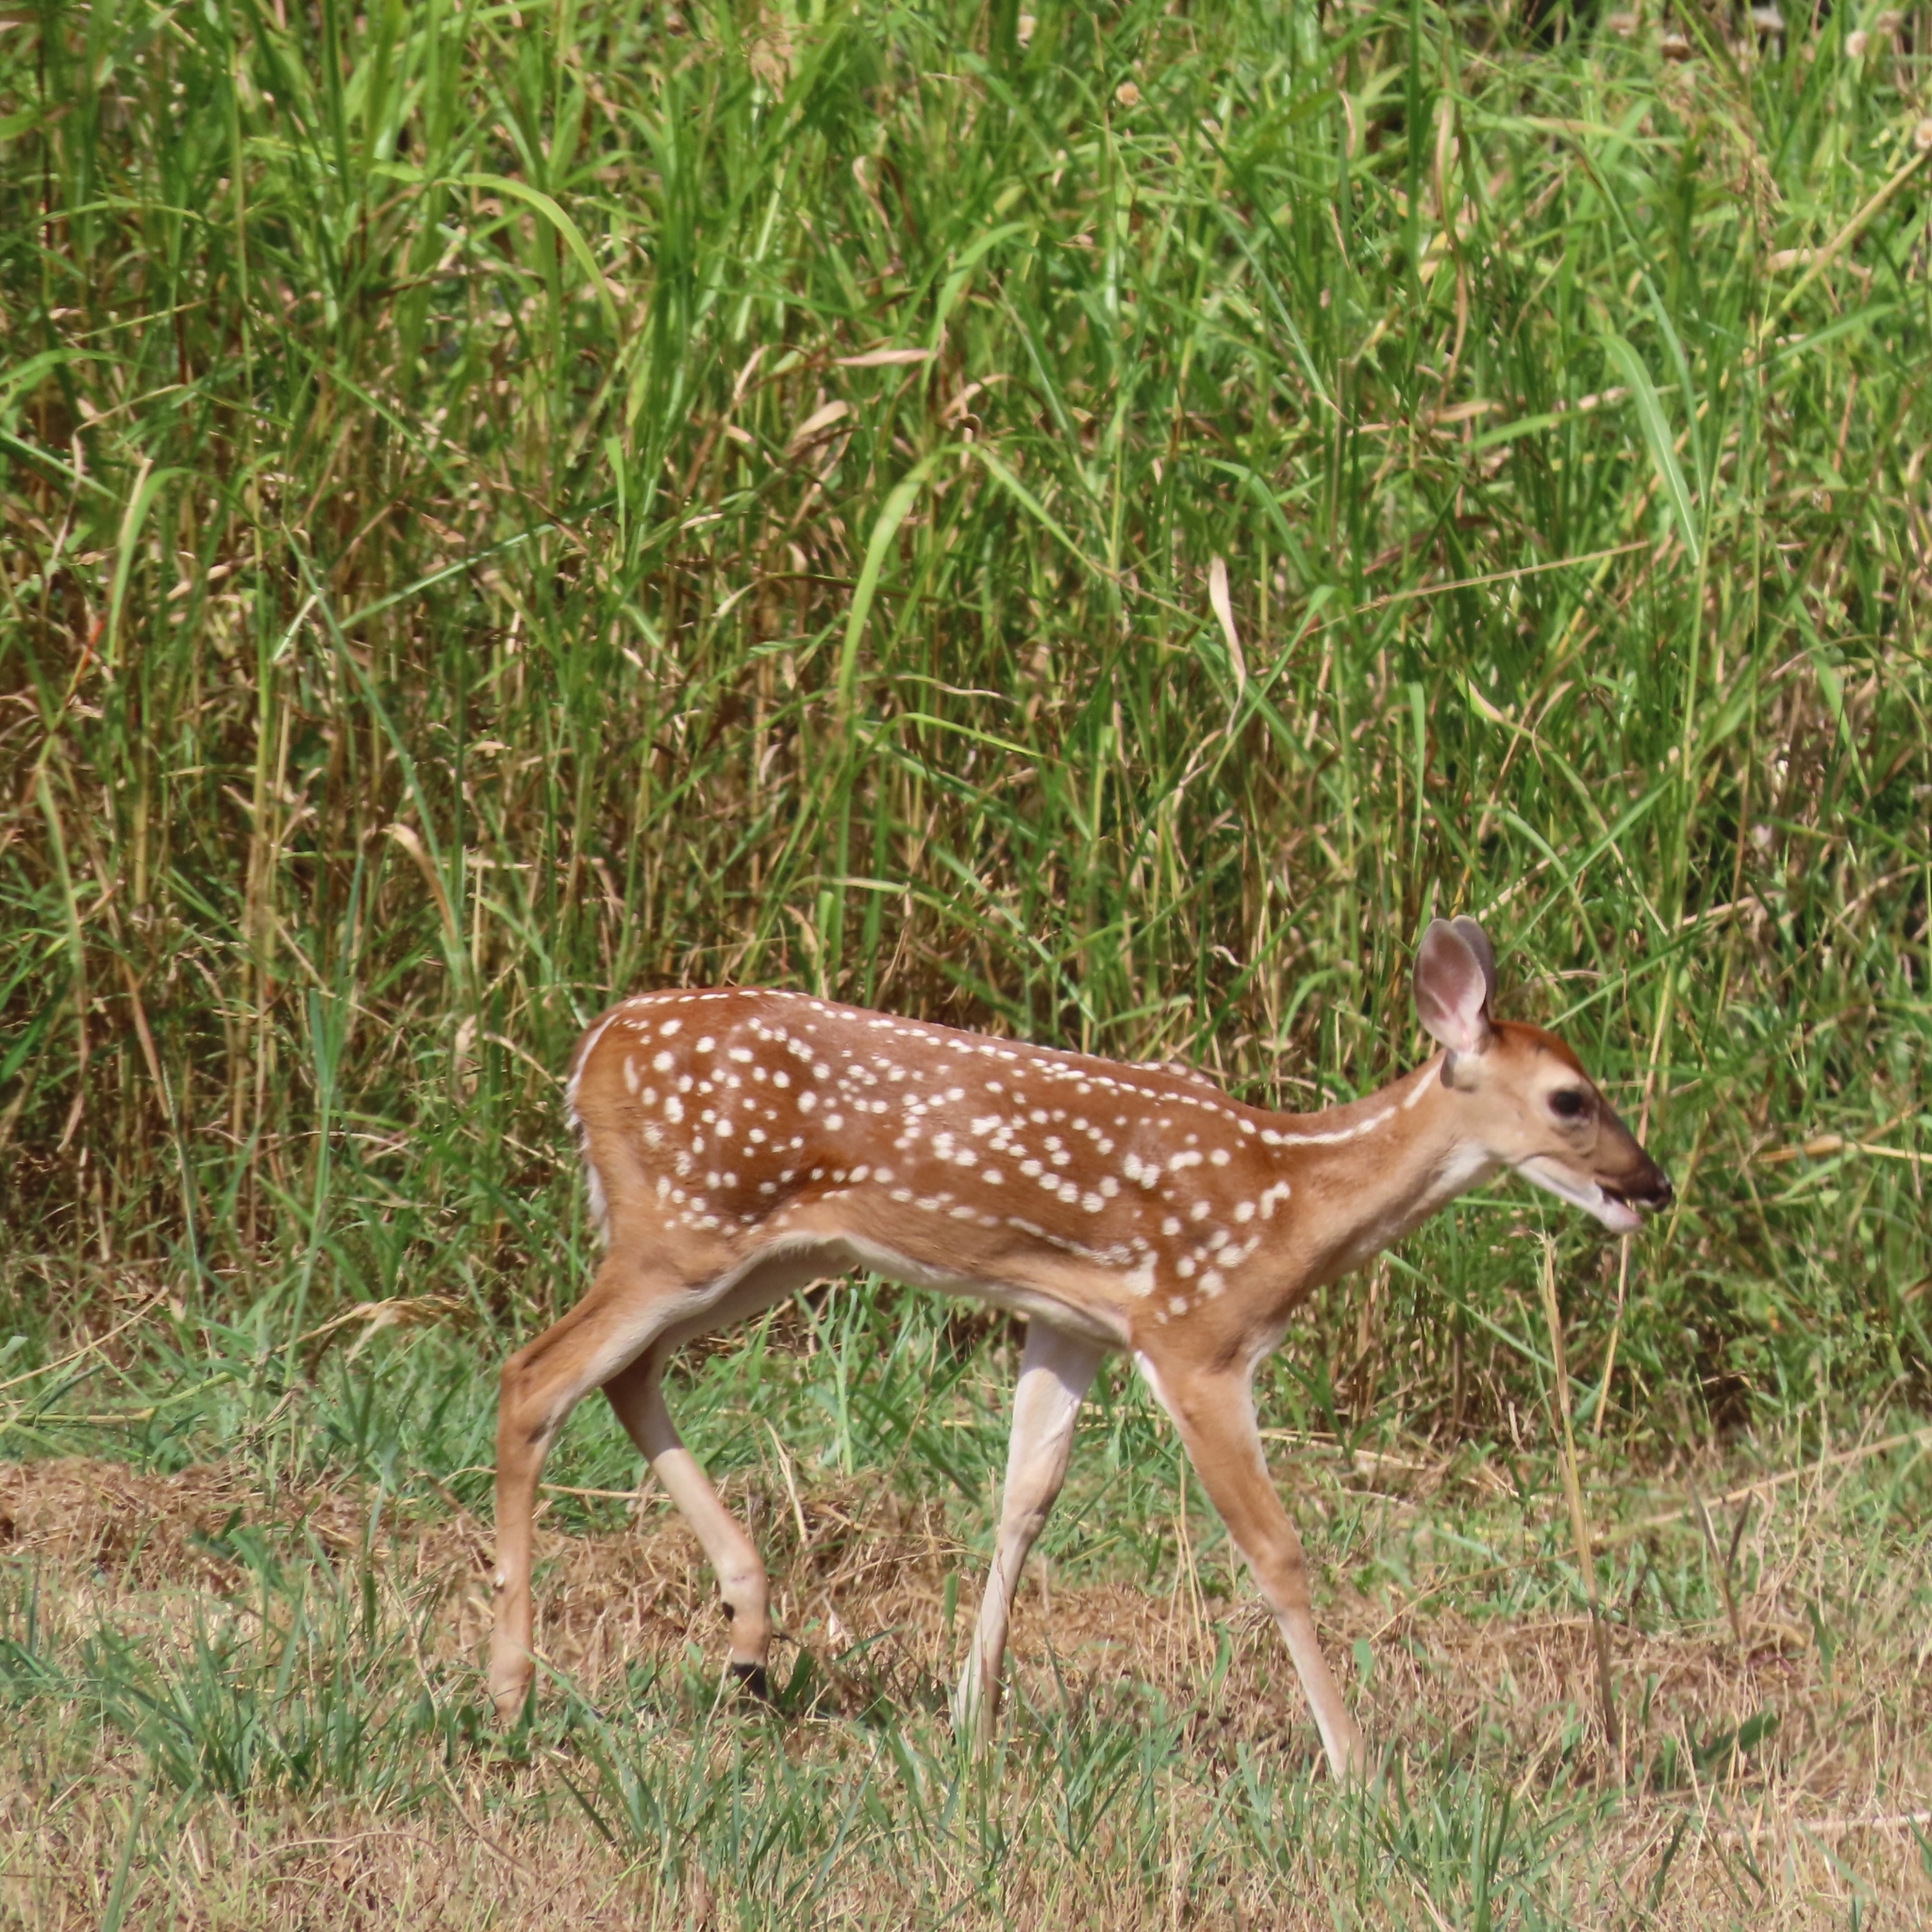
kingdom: Animalia
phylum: Chordata
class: Mammalia
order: Artiodactyla
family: Cervidae
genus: Odocoileus
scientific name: Odocoileus virginianus
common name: White-tailed deer
